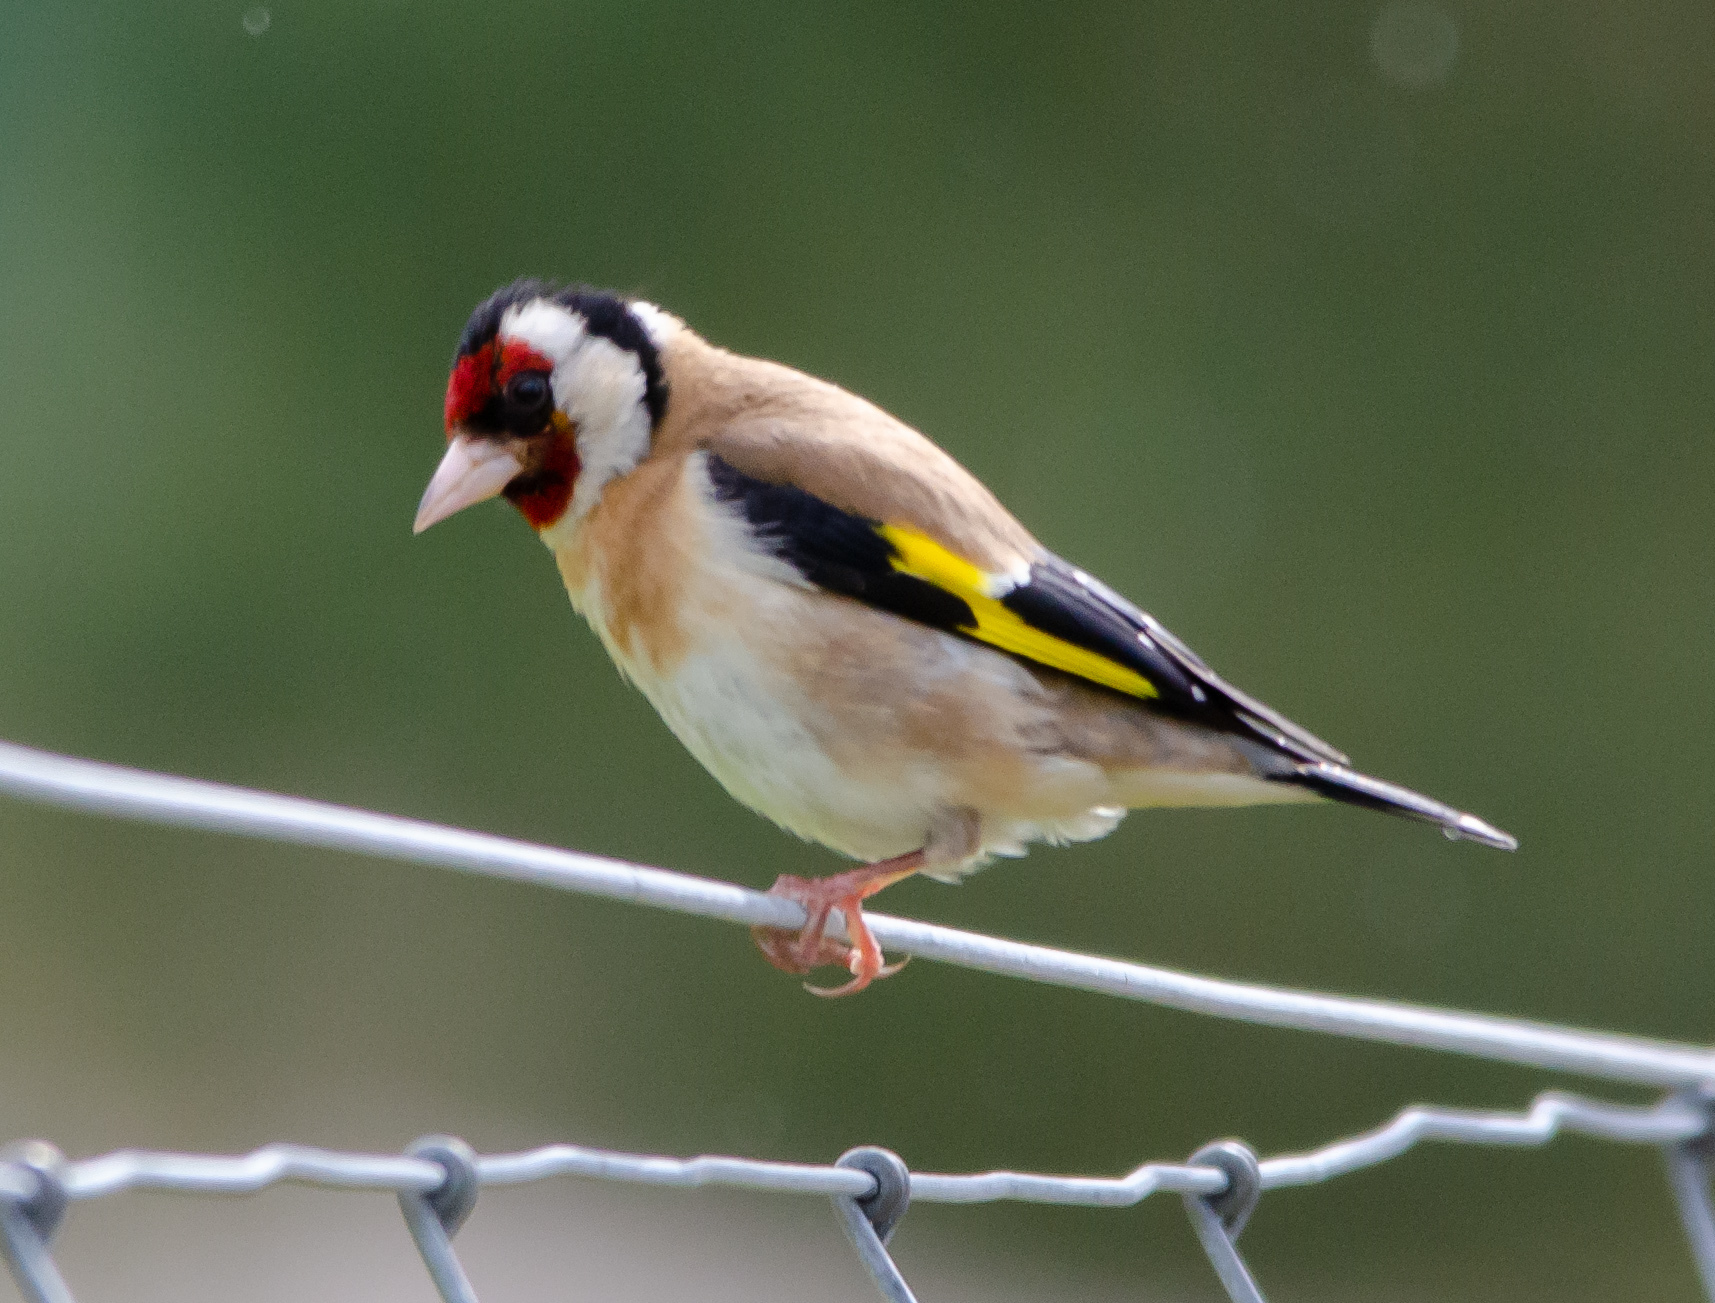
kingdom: Animalia
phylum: Chordata
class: Aves
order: Passeriformes
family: Fringillidae
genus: Carduelis
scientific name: Carduelis carduelis
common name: European goldfinch
